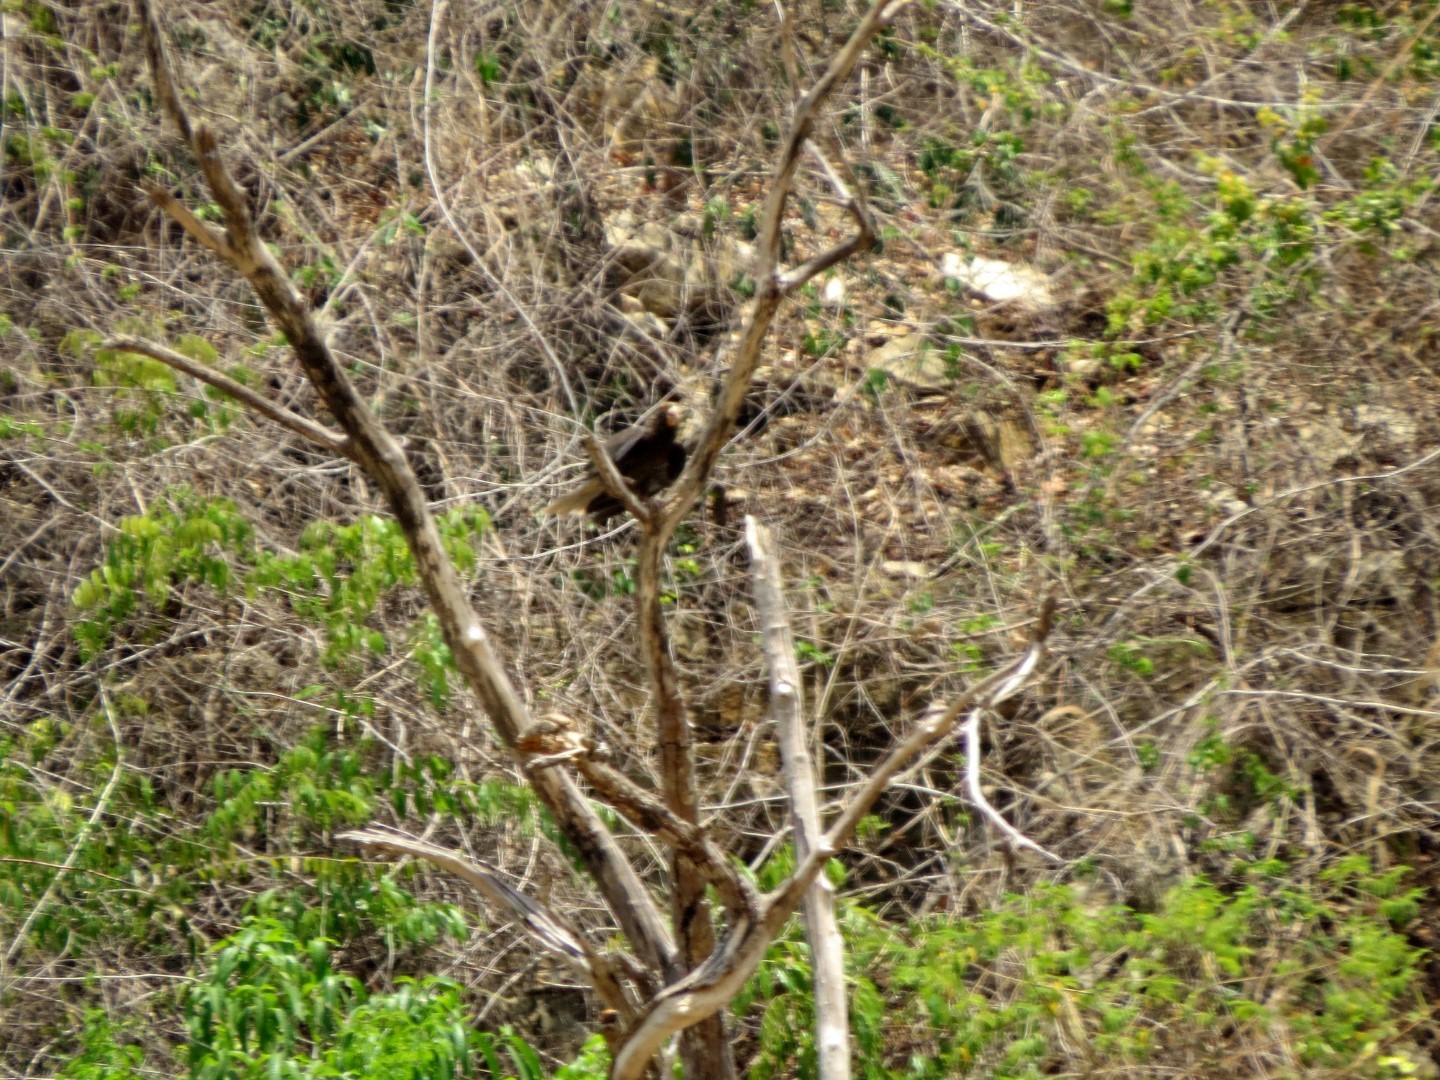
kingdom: Animalia
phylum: Chordata
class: Aves
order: Psittaciformes
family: Psittacidae
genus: Coracopsis
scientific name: Coracopsis vasa
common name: Greater vasa parrot
